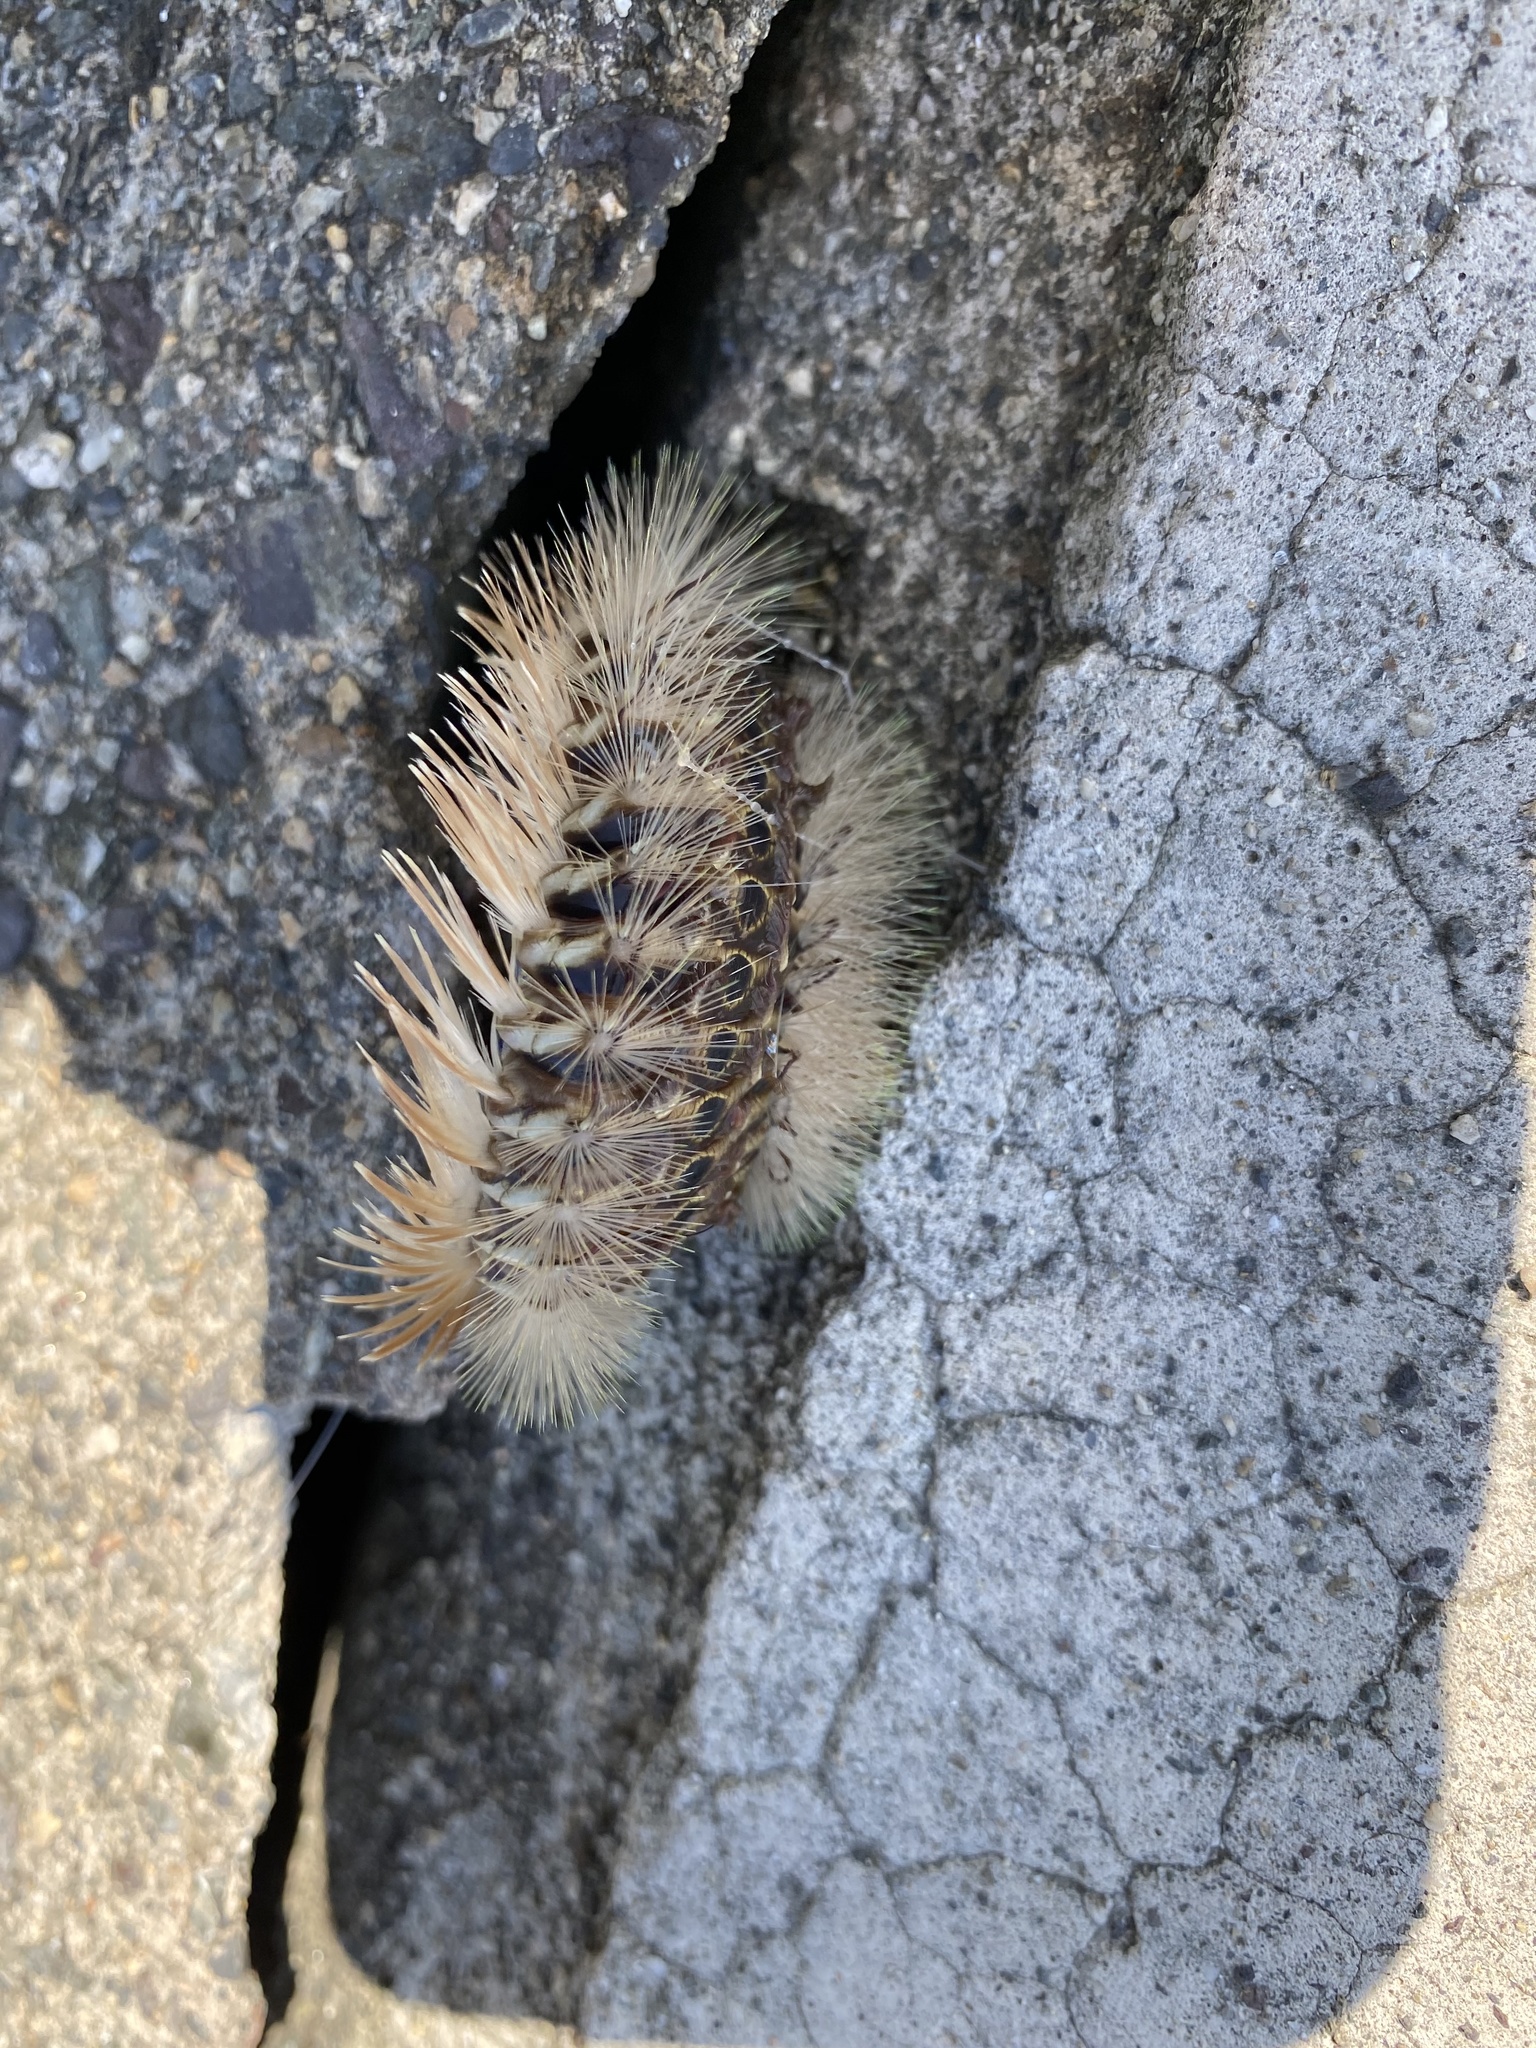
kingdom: Animalia
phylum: Annelida
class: Polychaeta
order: Amphinomida
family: Amphinomidae
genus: Chloeia
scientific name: Chloeia flava
